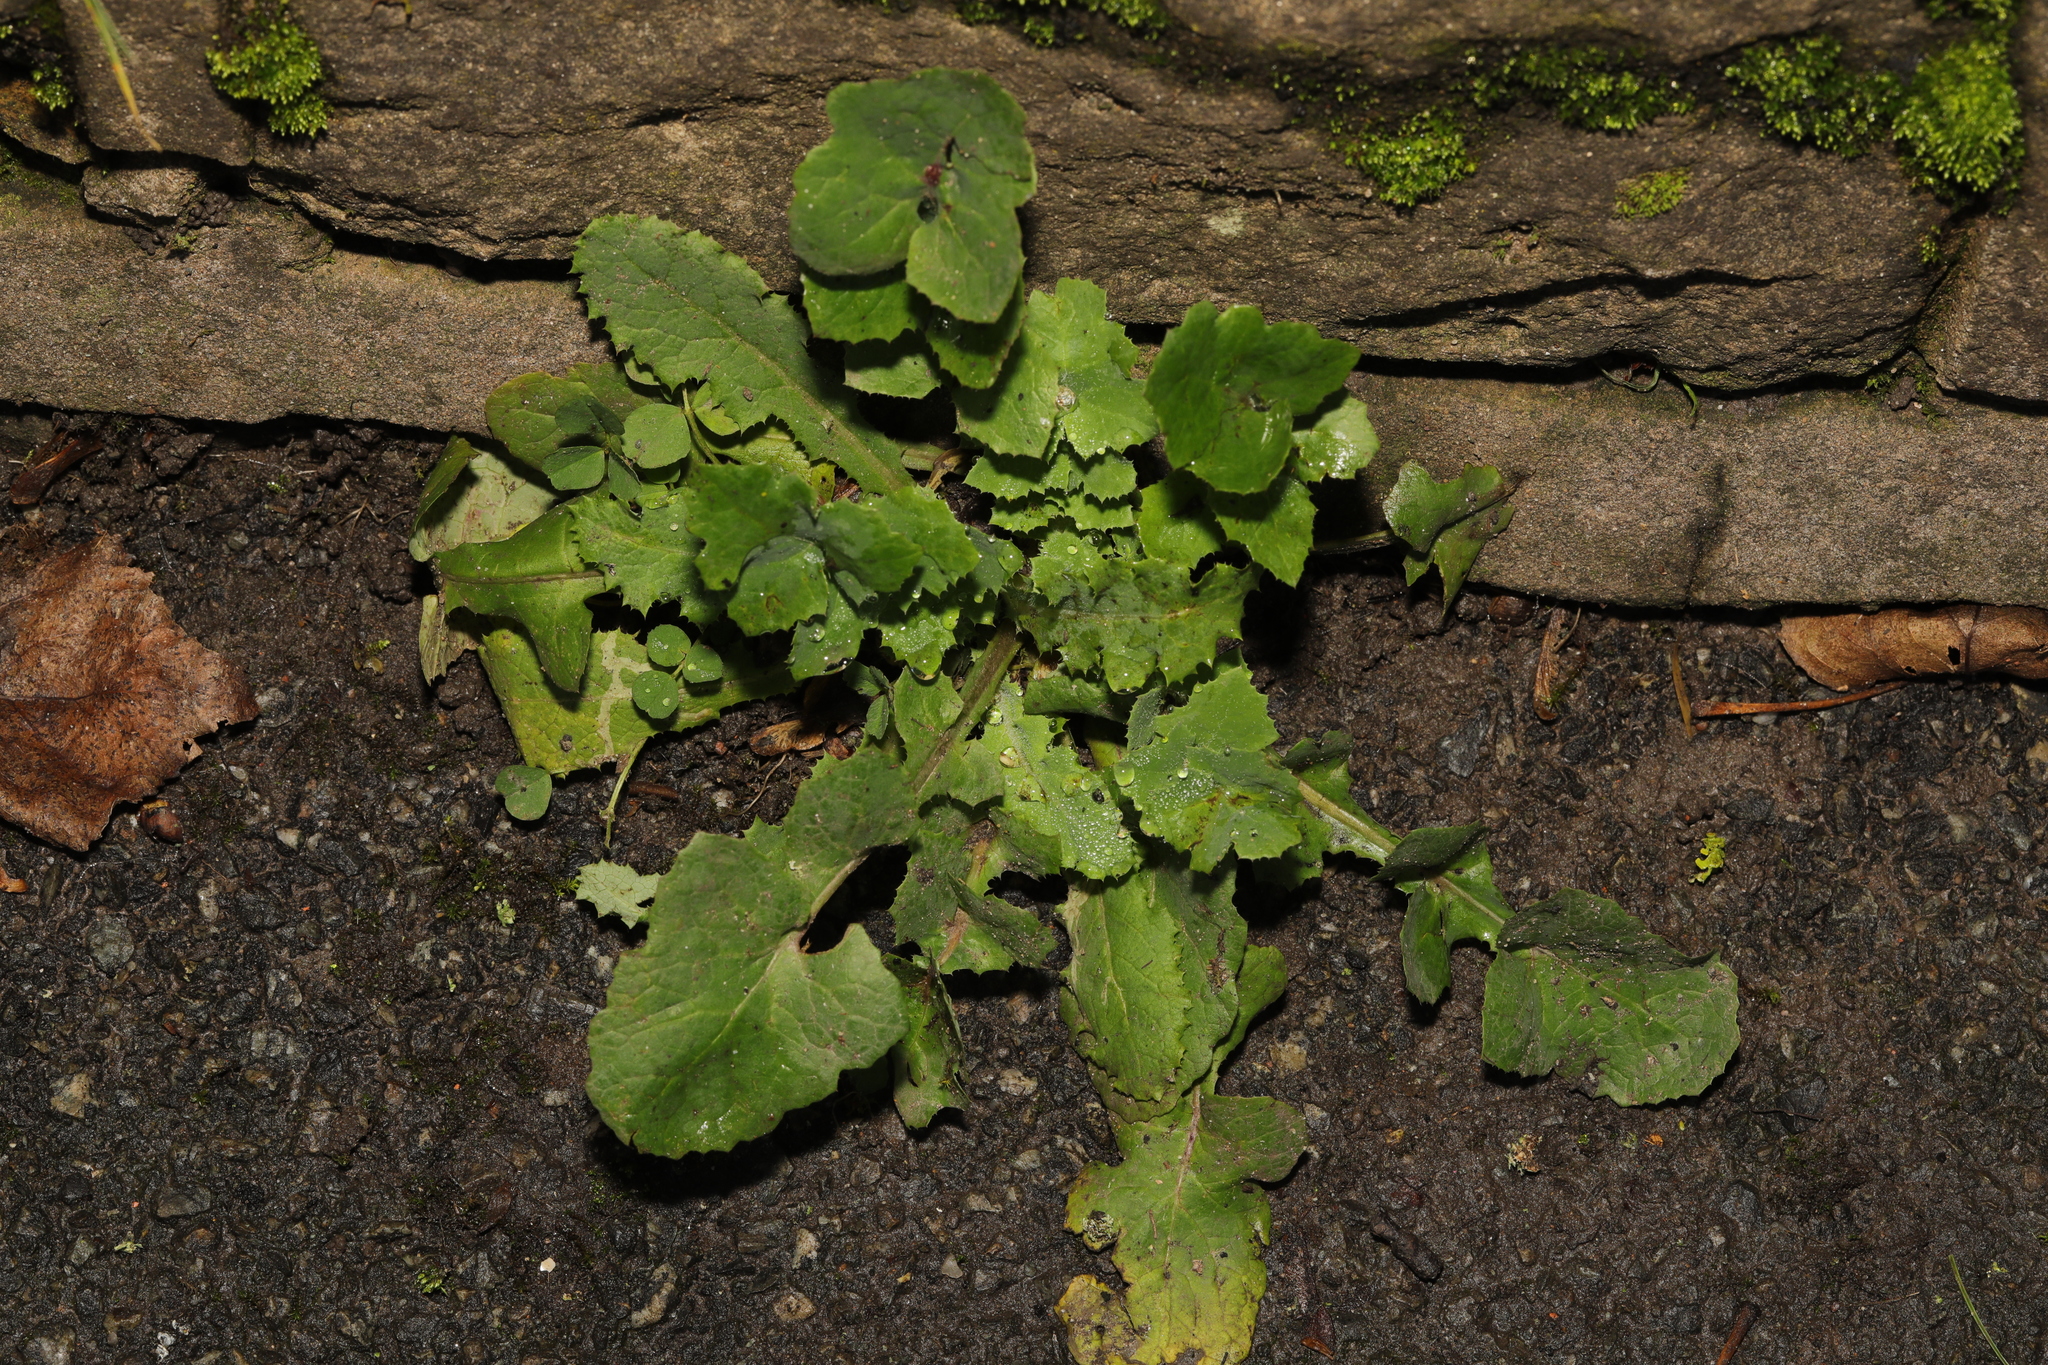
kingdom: Plantae
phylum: Tracheophyta
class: Magnoliopsida
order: Asterales
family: Asteraceae
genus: Sonchus
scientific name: Sonchus oleraceus
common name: Common sowthistle
